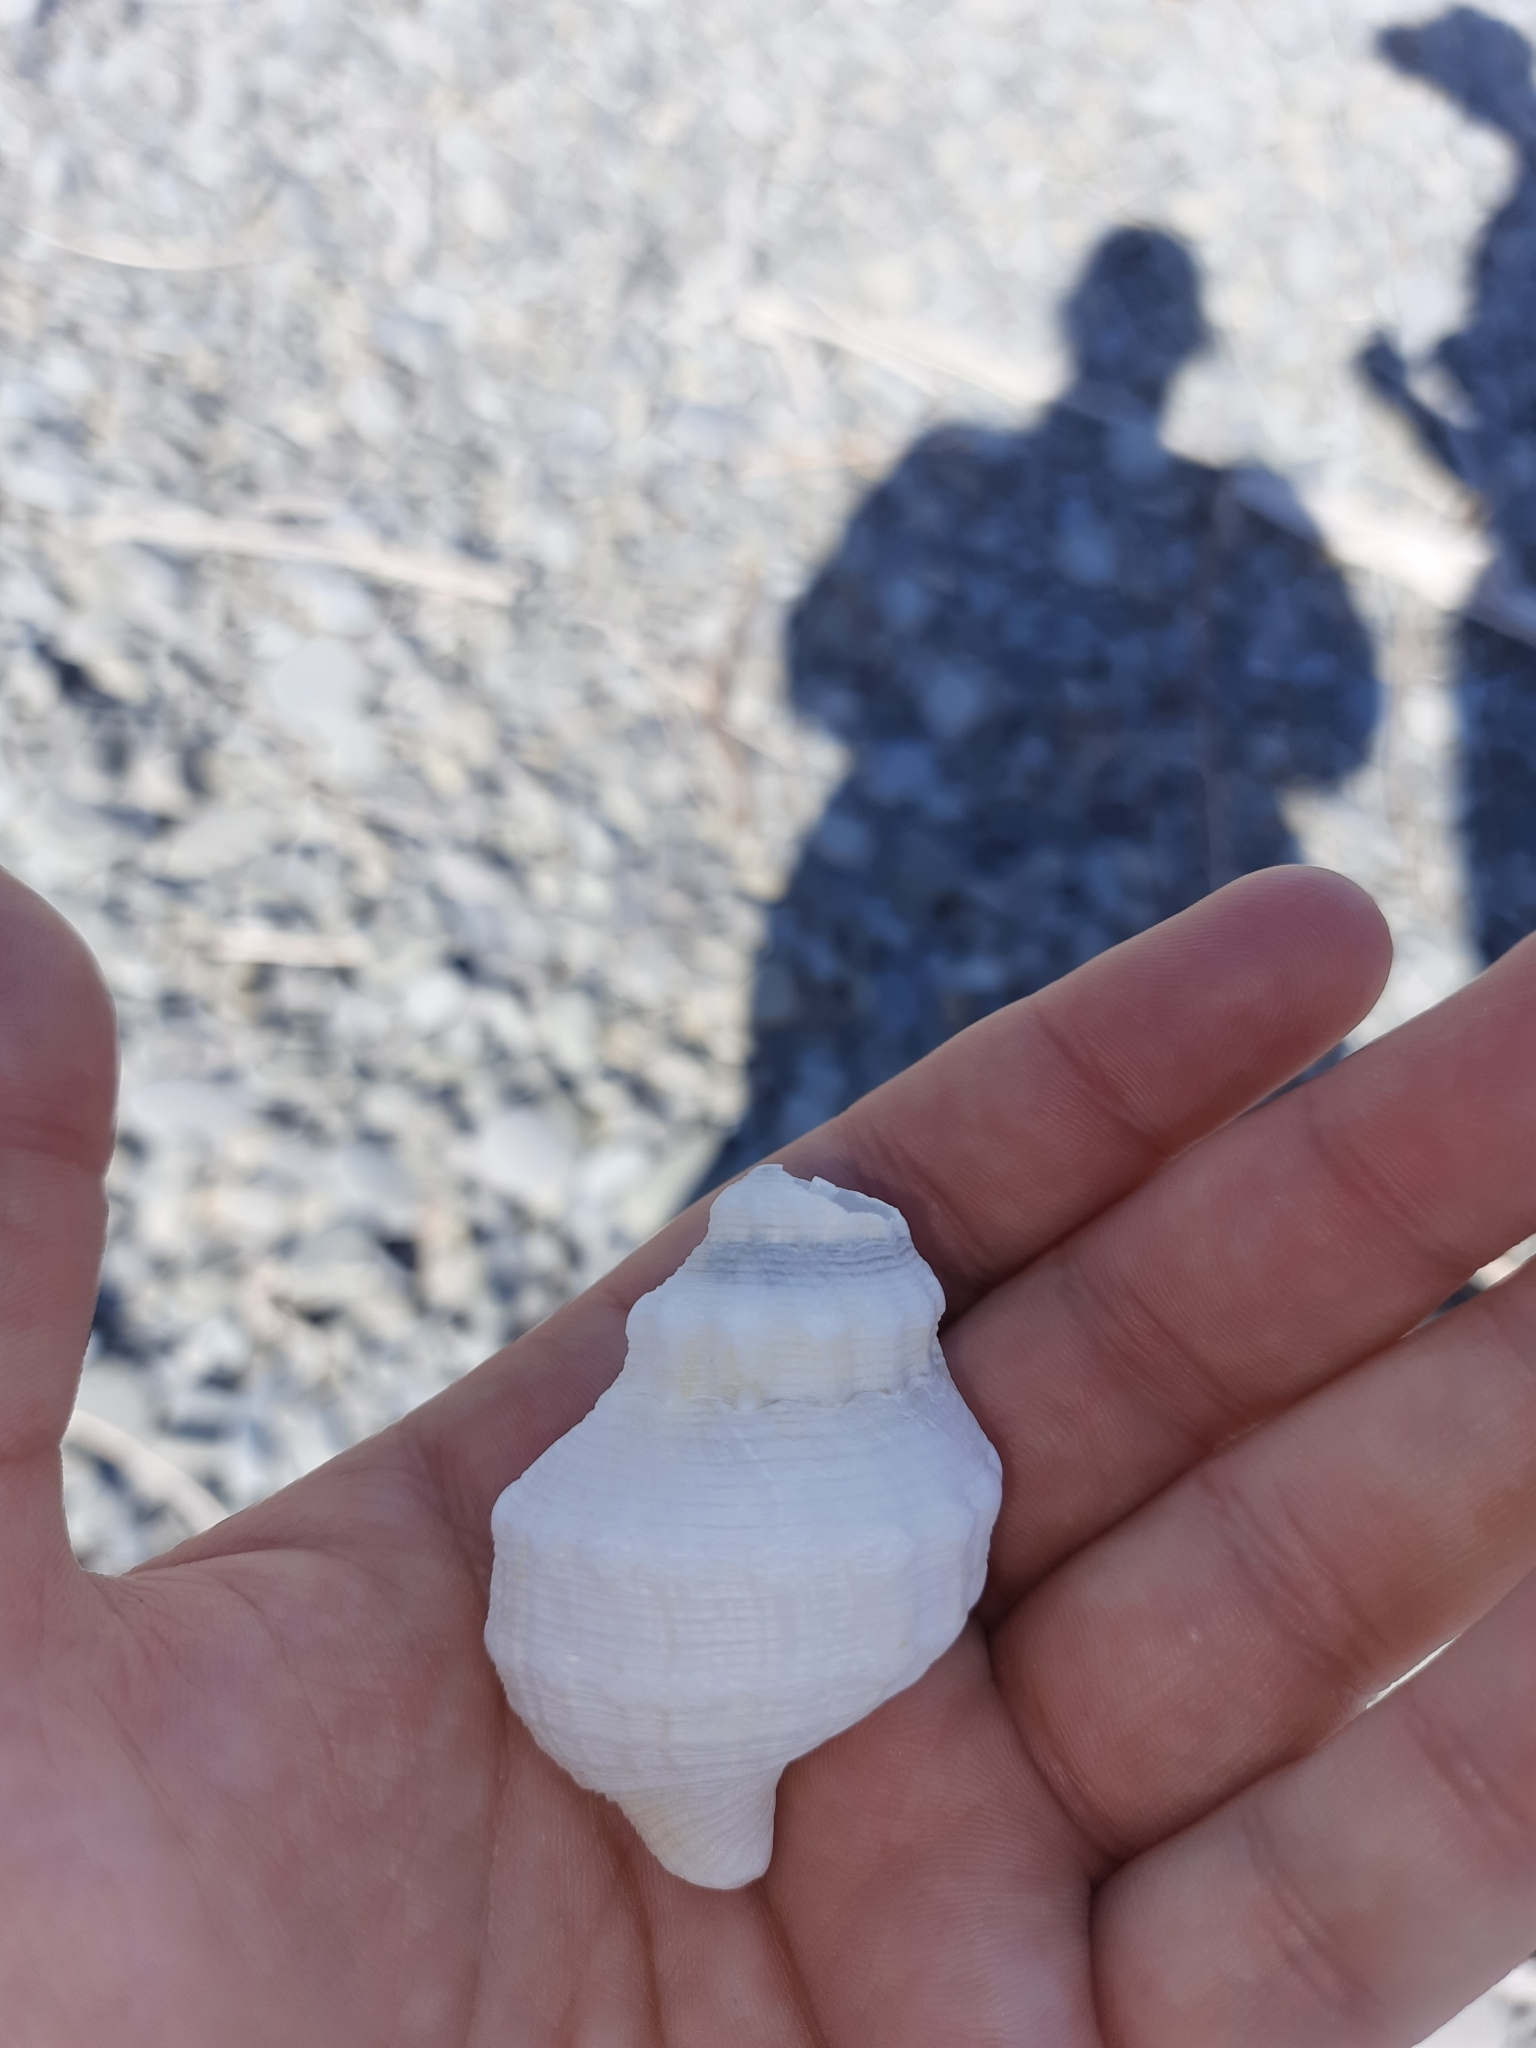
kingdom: Animalia
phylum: Mollusca
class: Gastropoda
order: Neogastropoda
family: Prosiphonidae
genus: Austrofusus
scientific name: Austrofusus glans
